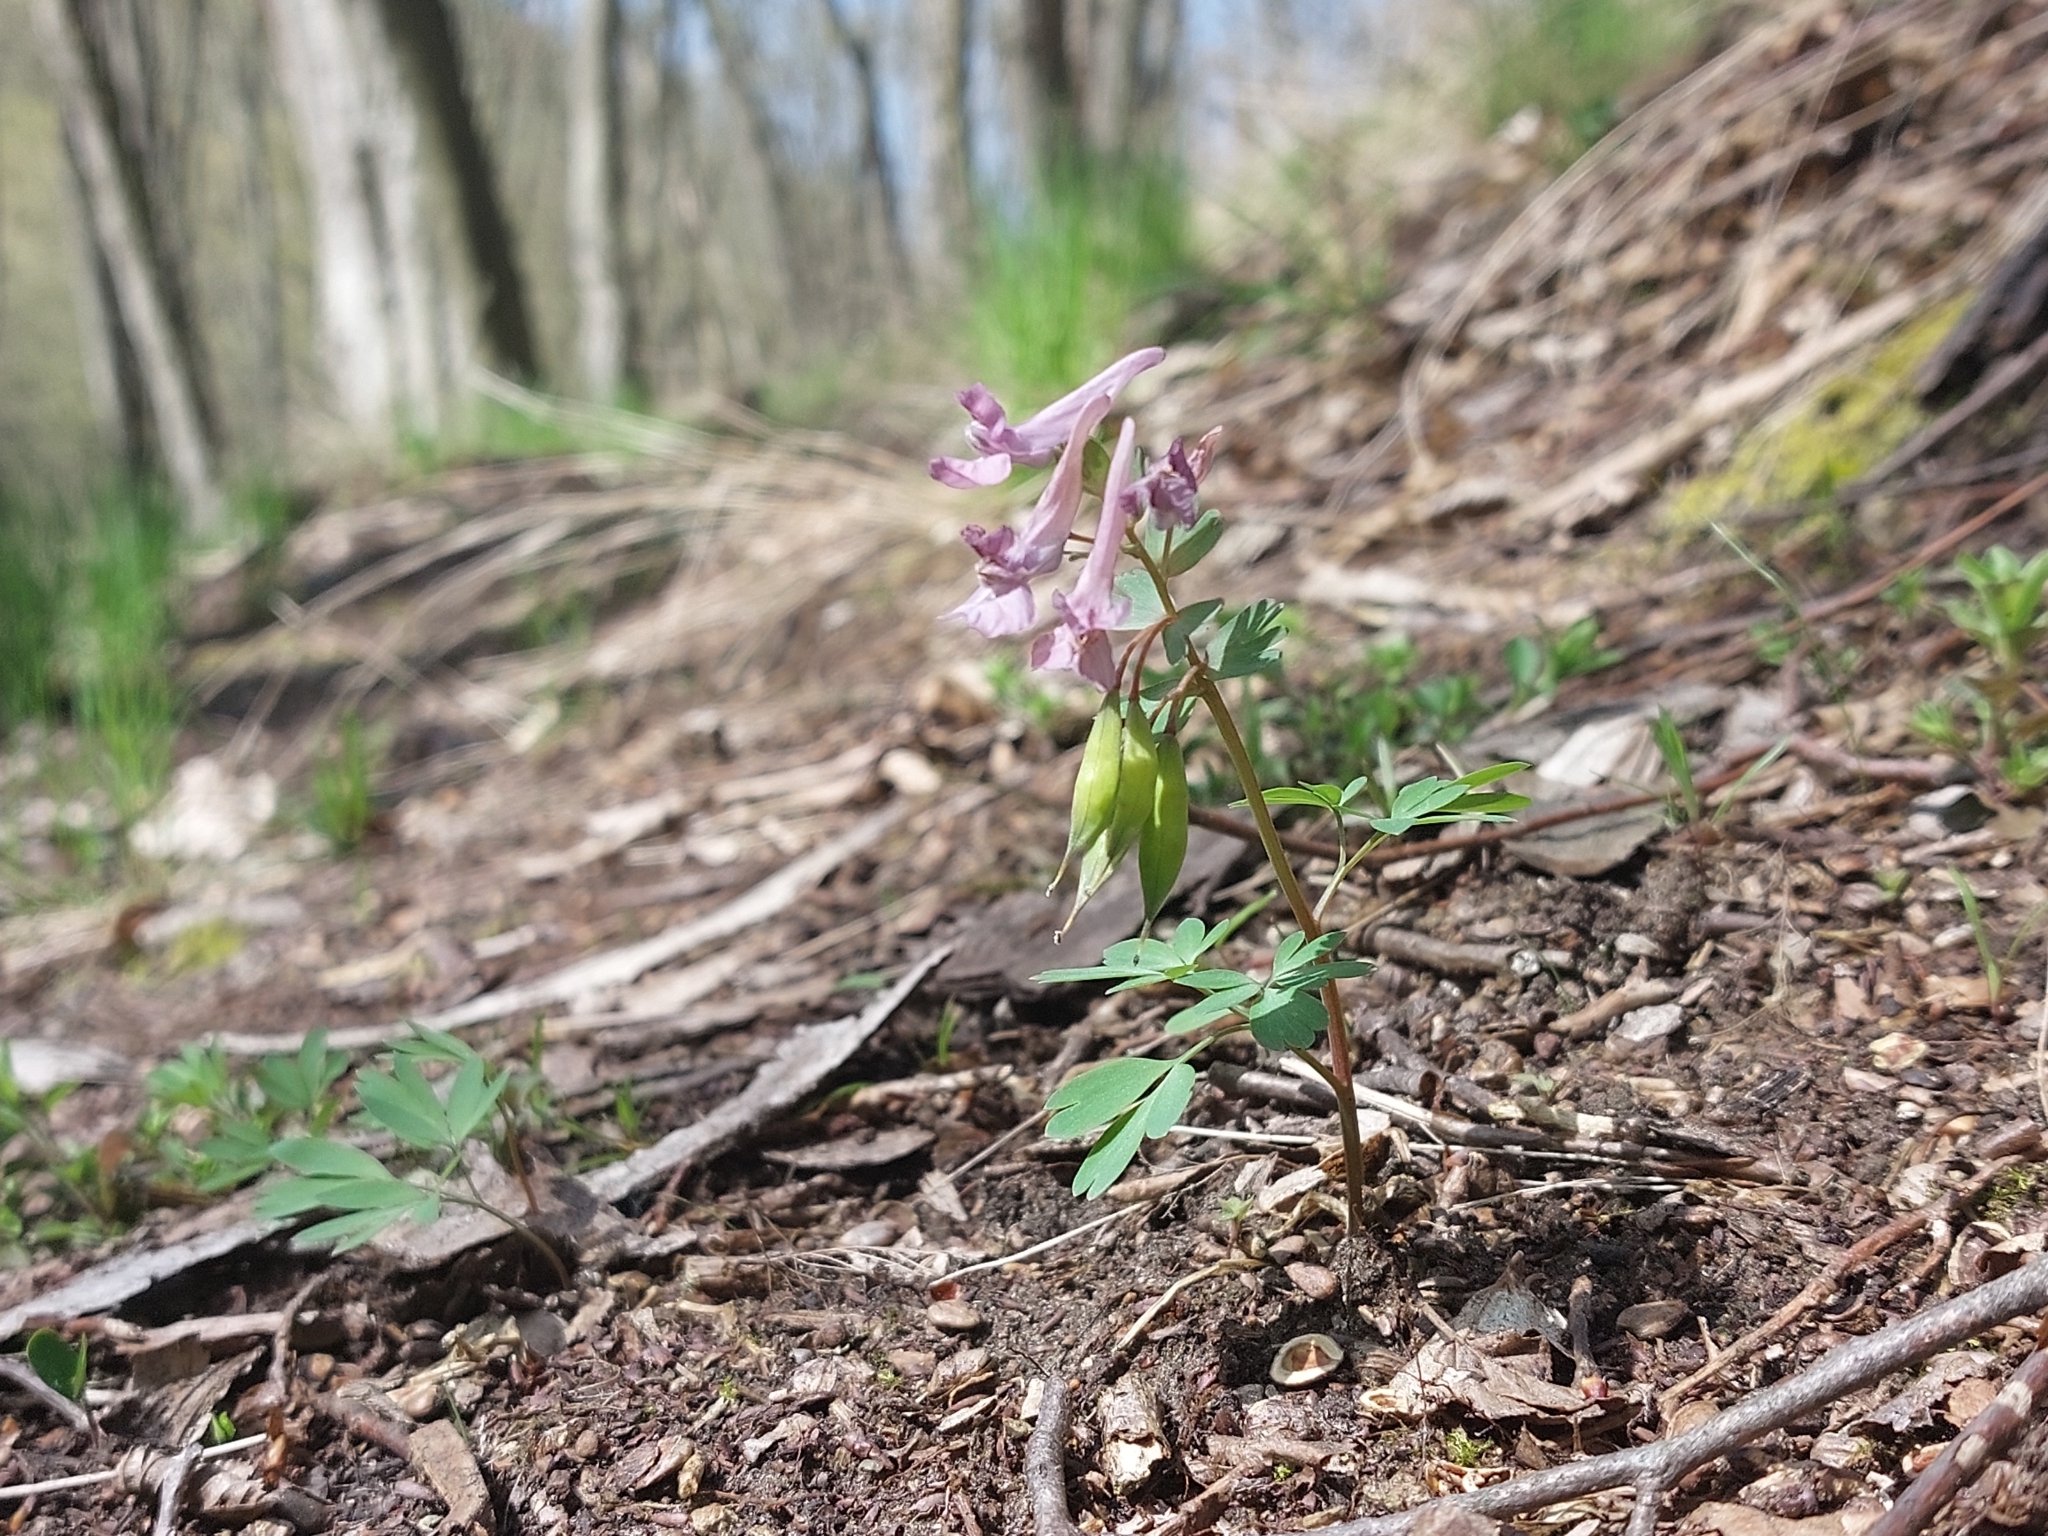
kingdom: Plantae
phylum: Tracheophyta
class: Magnoliopsida
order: Ranunculales
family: Papaveraceae
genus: Corydalis
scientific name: Corydalis solida
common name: Bird-in-a-bush
